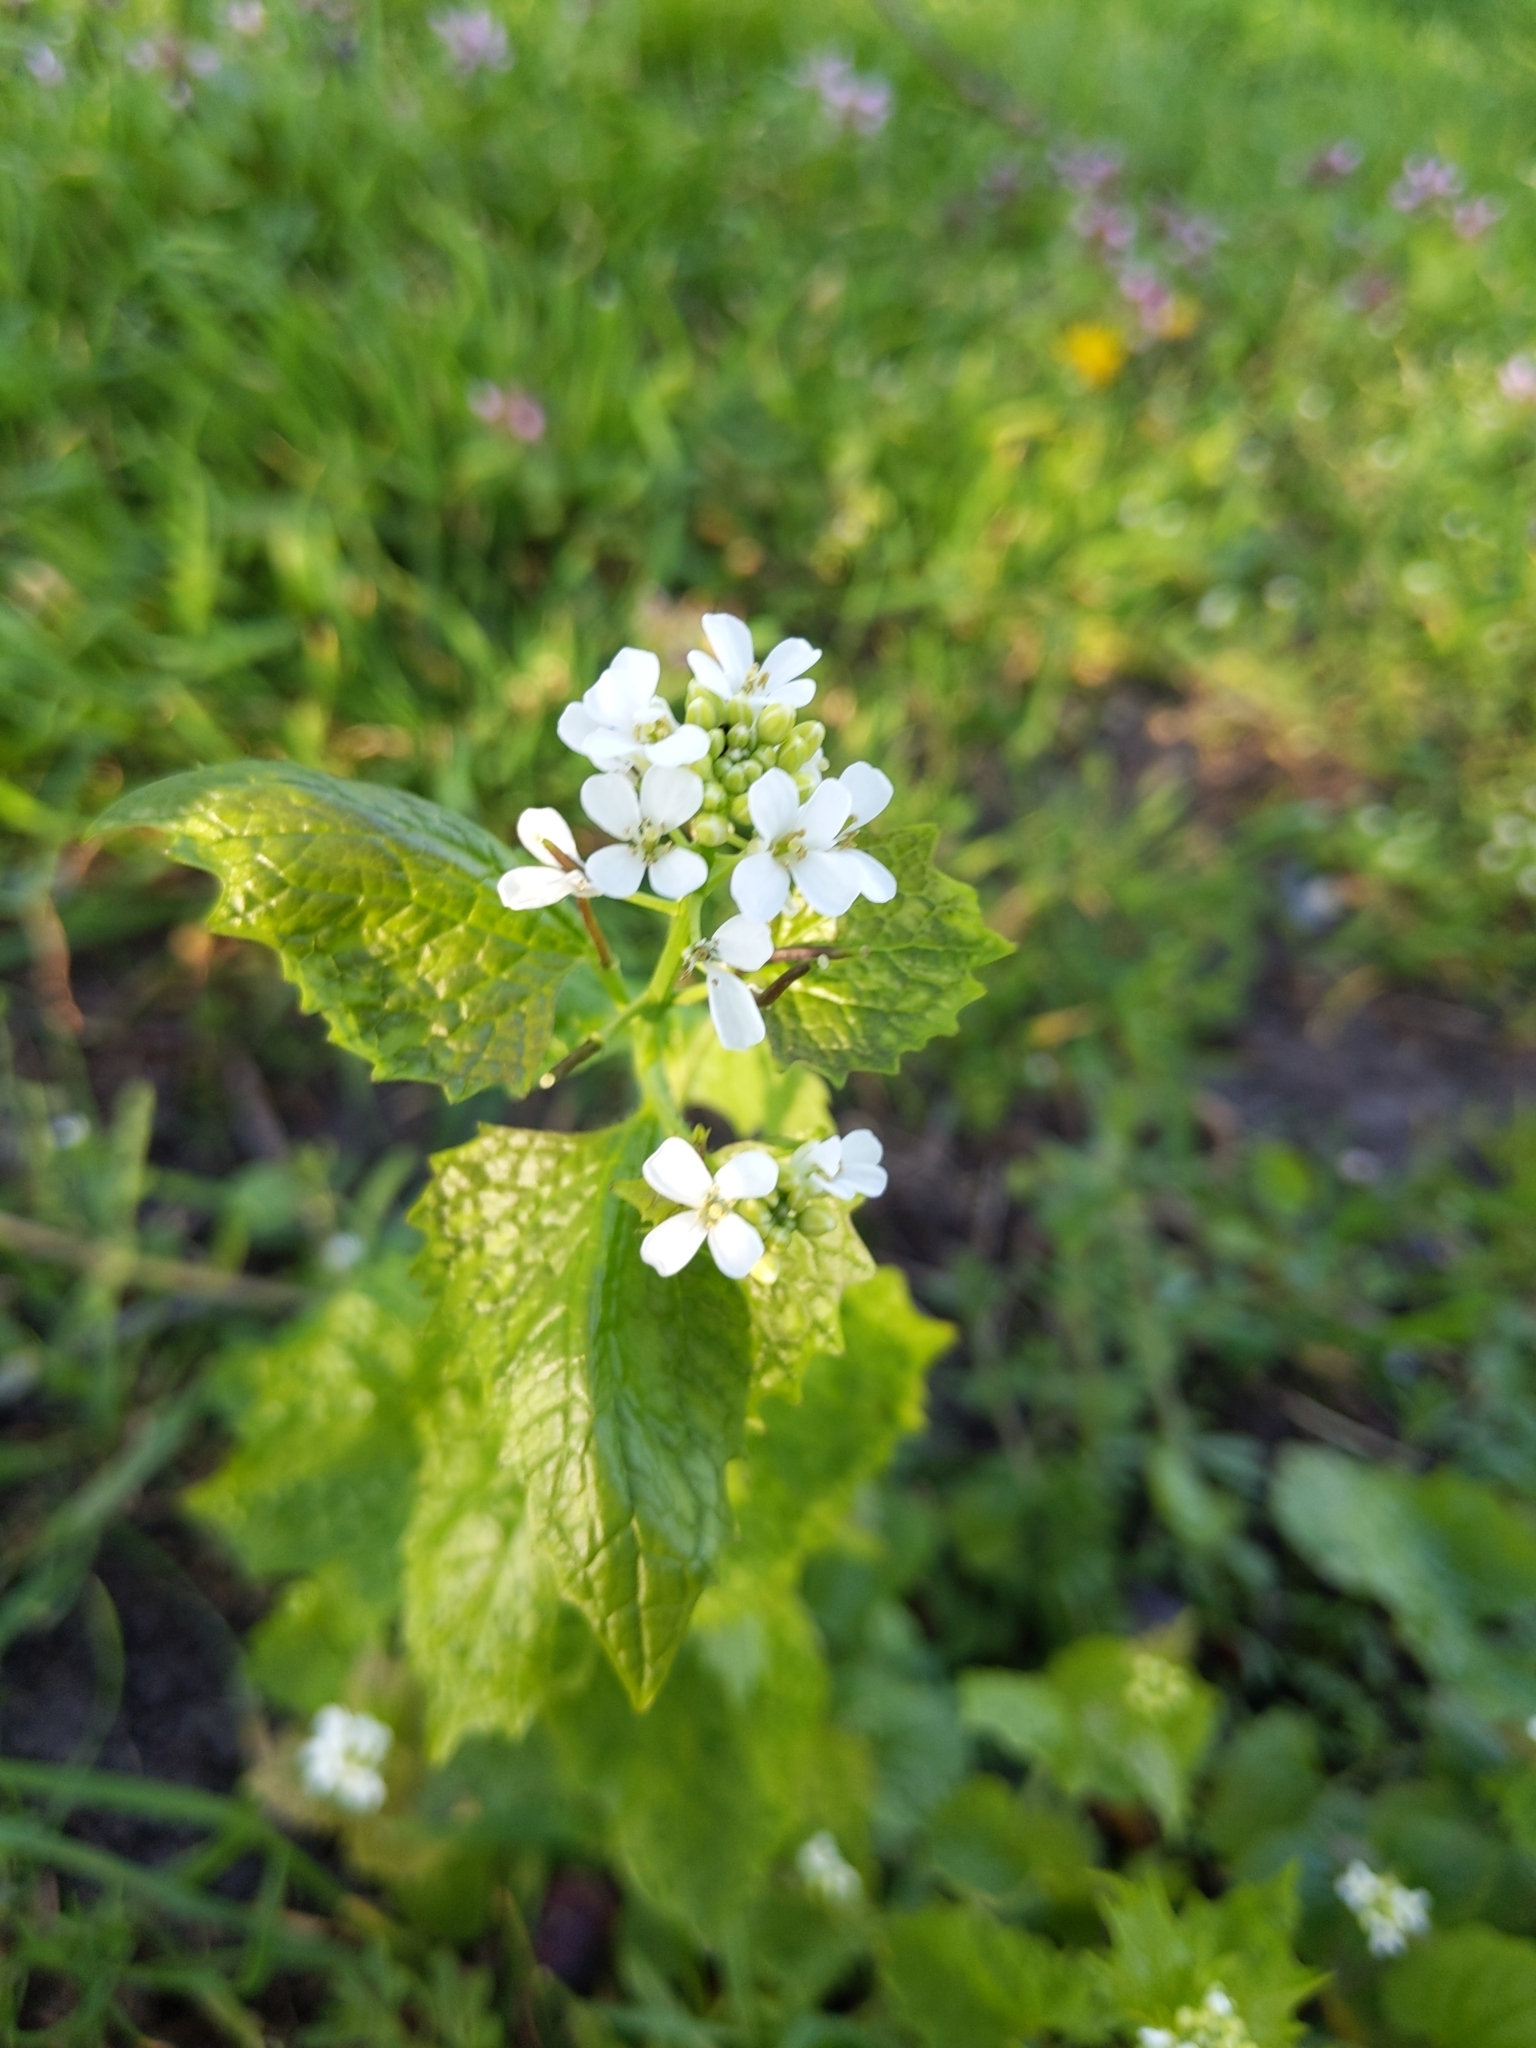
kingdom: Plantae
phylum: Tracheophyta
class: Magnoliopsida
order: Brassicales
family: Brassicaceae
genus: Alliaria
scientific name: Alliaria petiolata
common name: Garlic mustard
